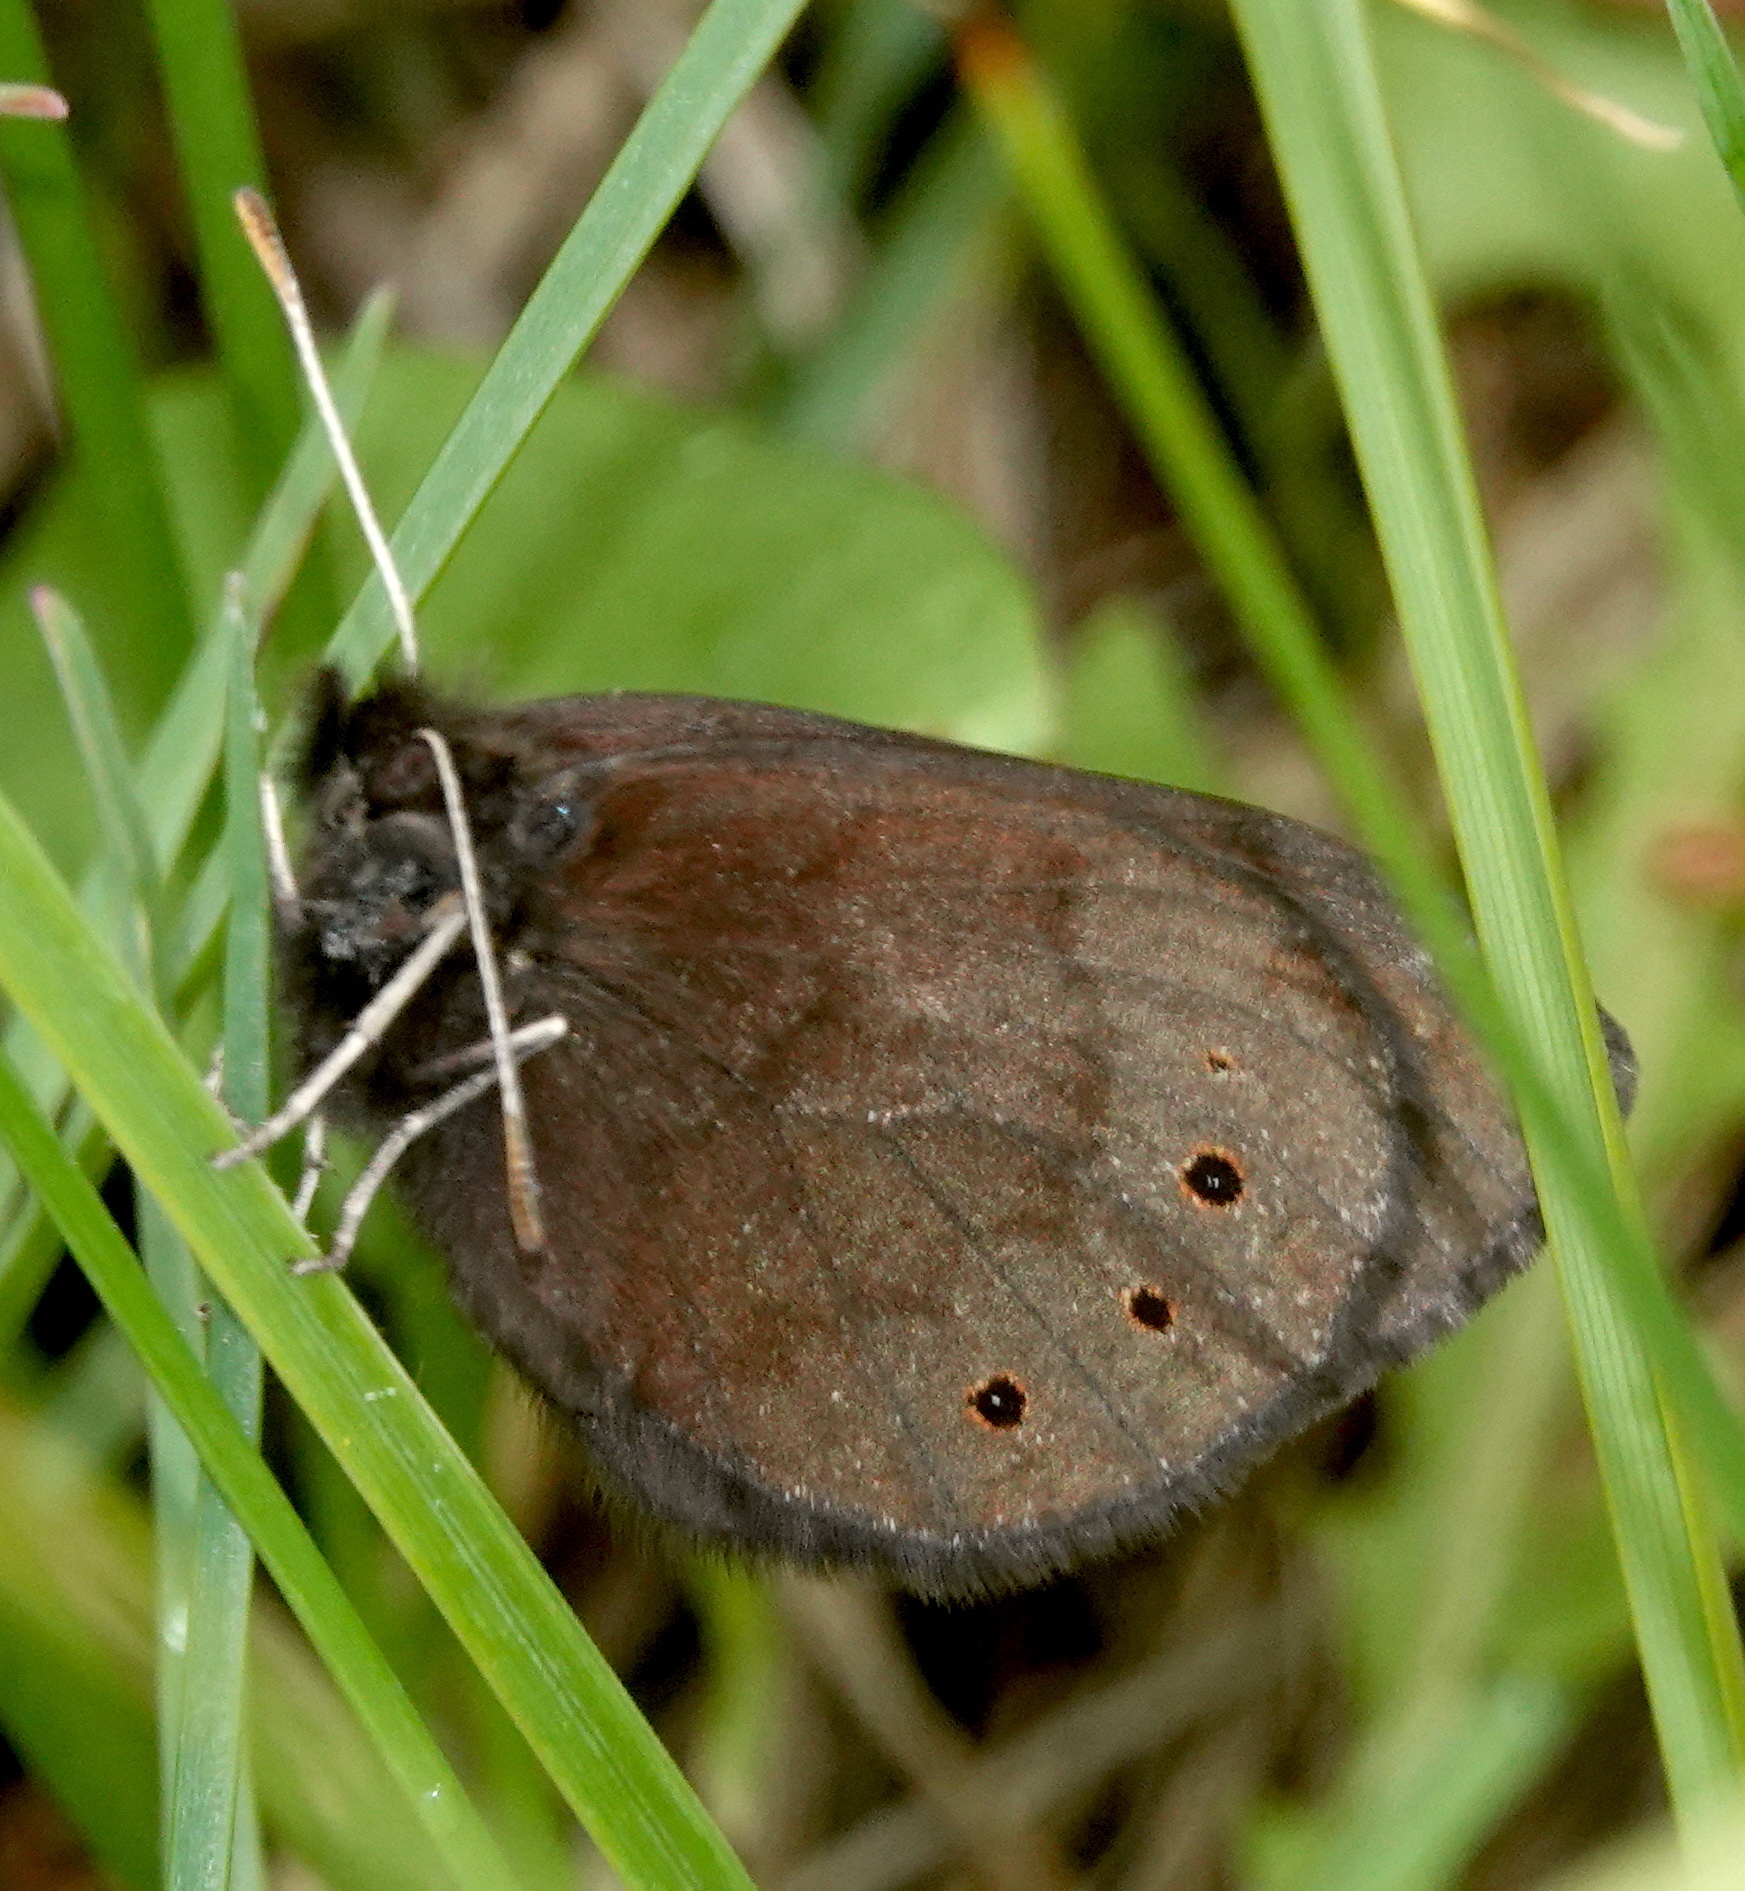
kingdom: Animalia
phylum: Arthropoda
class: Insecta
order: Lepidoptera
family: Nymphalidae
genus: Erebia
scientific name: Erebia epipsodea
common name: Common alpine
